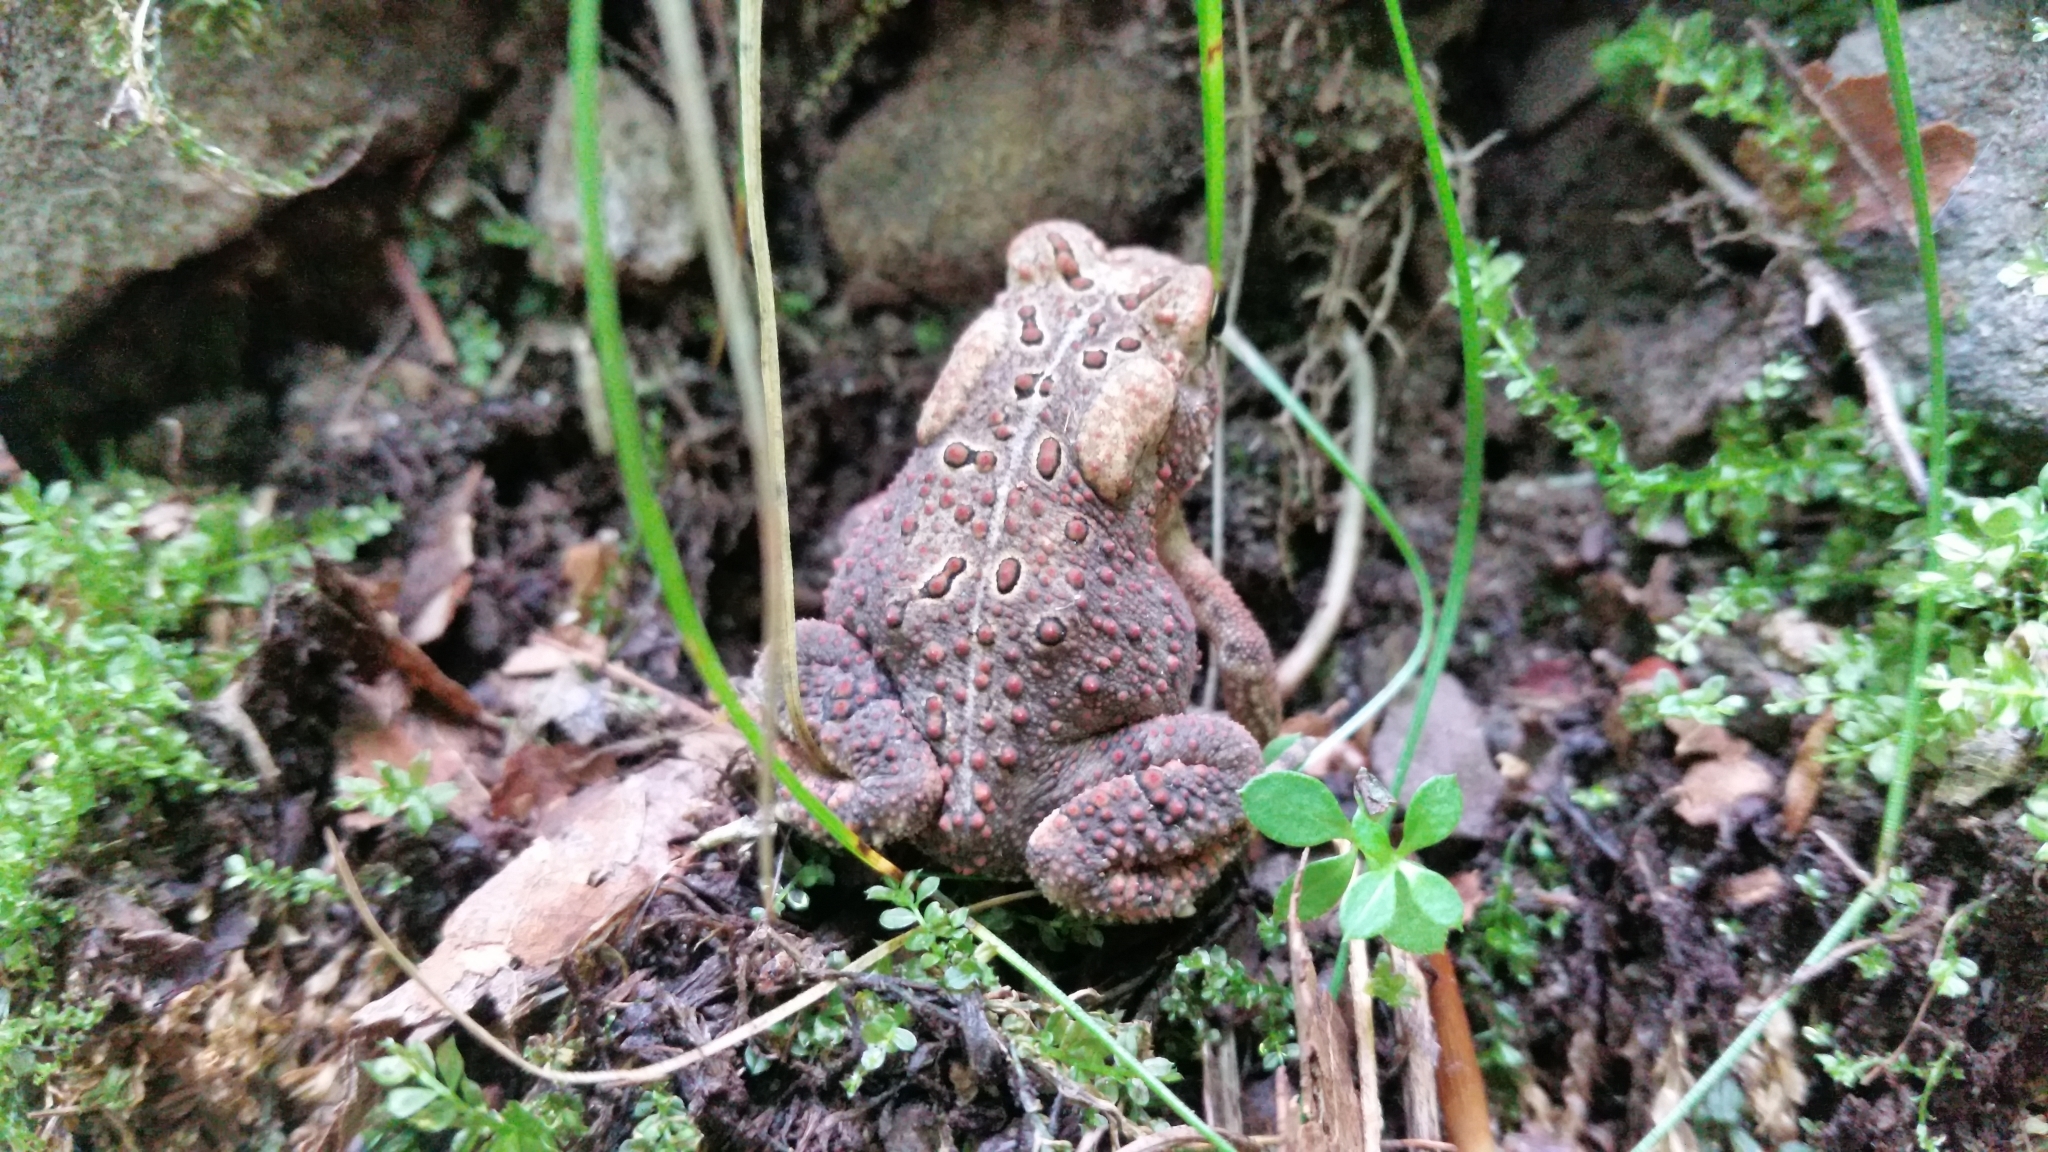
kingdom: Animalia
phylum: Chordata
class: Amphibia
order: Anura
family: Bufonidae
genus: Anaxyrus
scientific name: Anaxyrus americanus
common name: American toad
